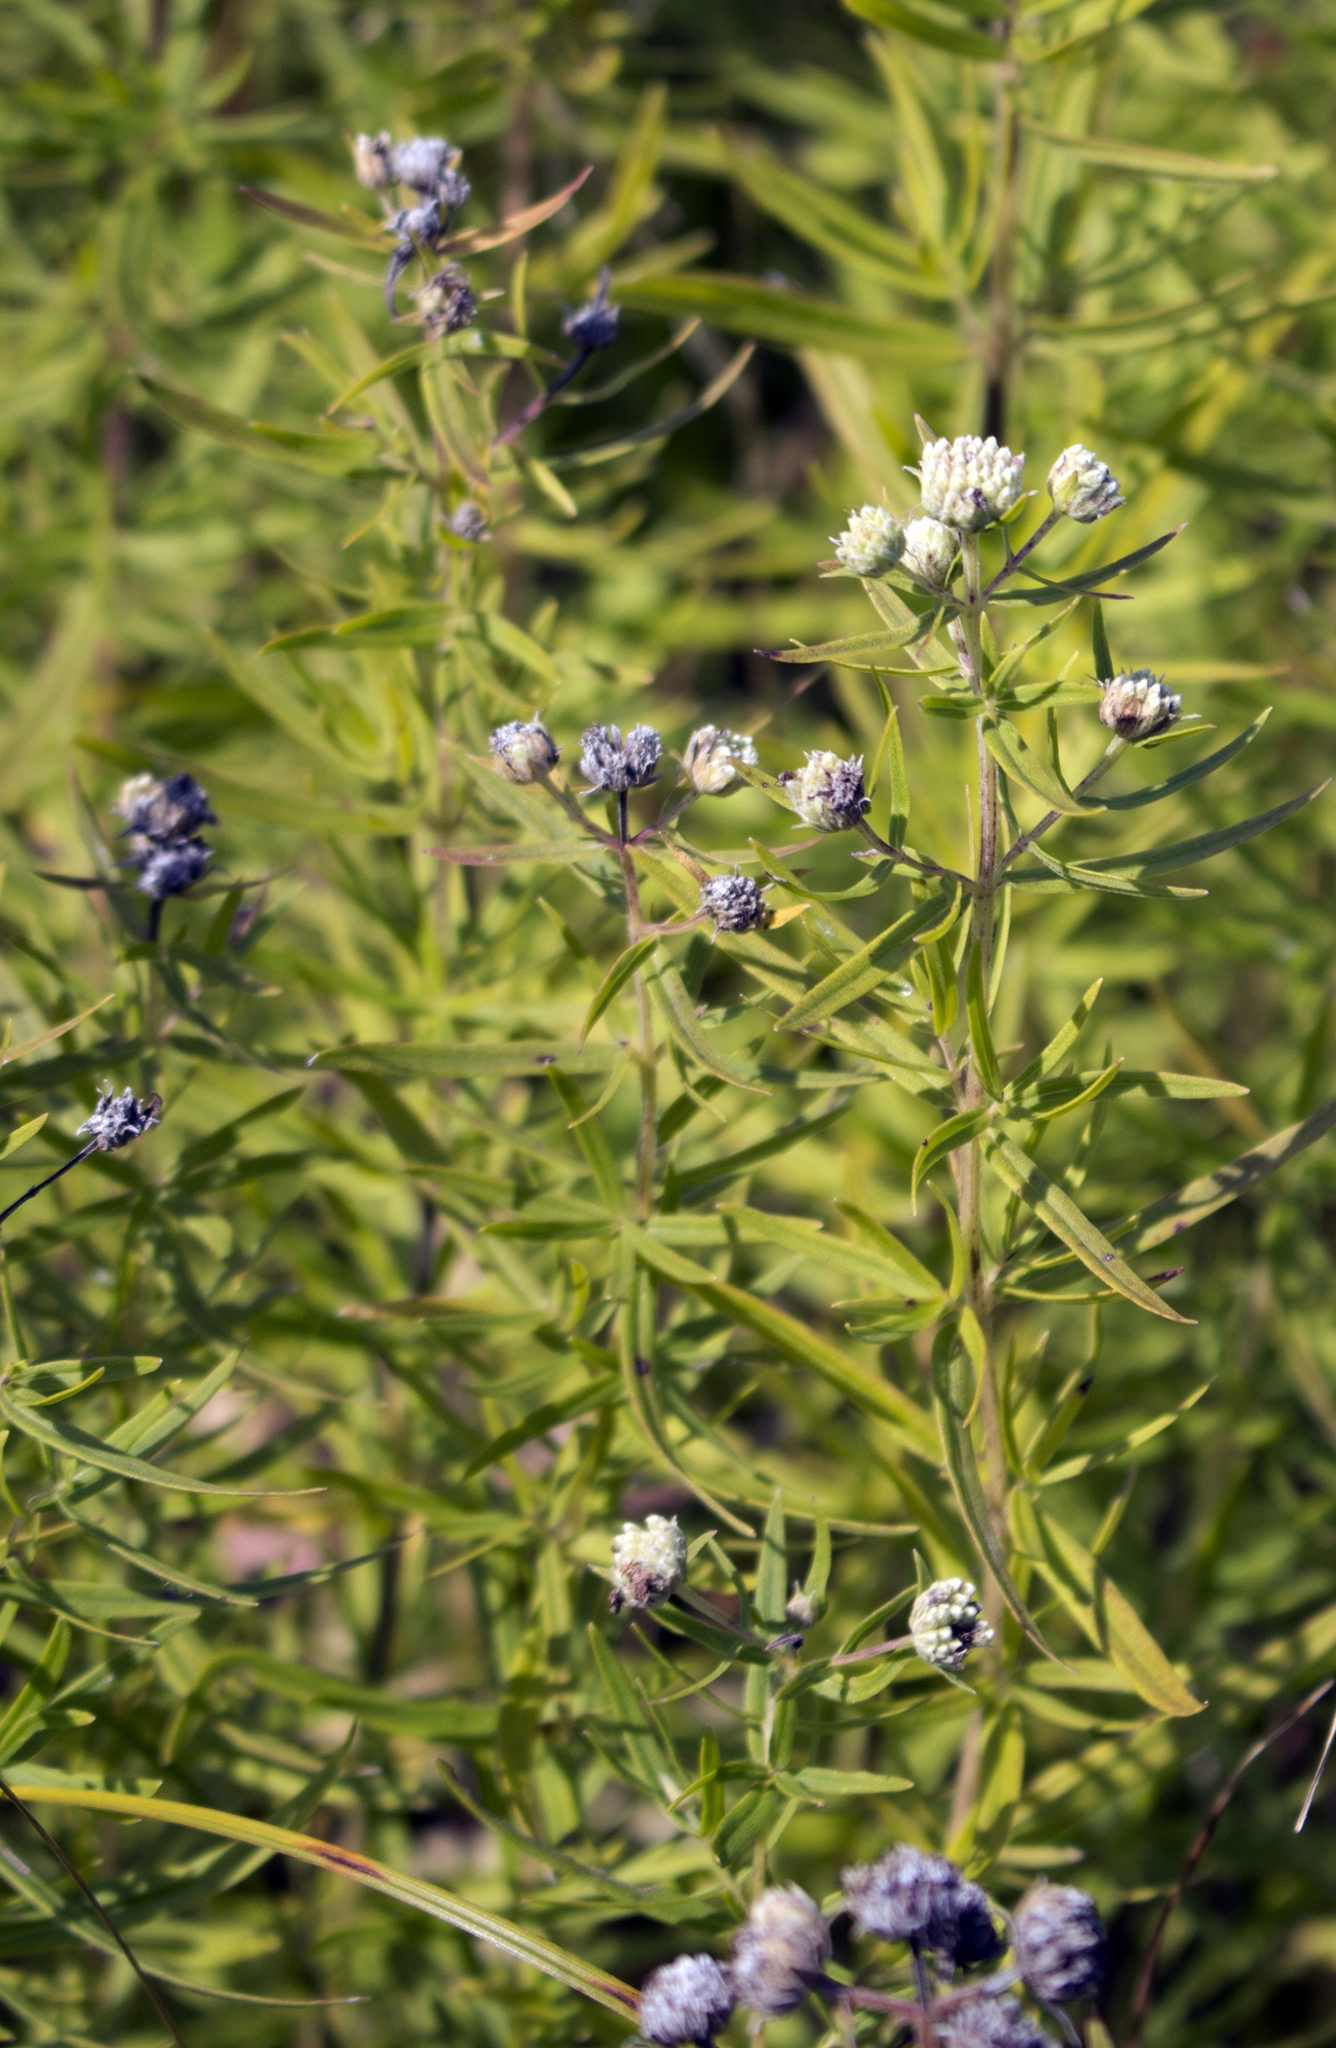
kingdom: Plantae
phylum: Tracheophyta
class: Magnoliopsida
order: Lamiales
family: Lamiaceae
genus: Pycnanthemum
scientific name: Pycnanthemum virginianum
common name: Virginia mountain-mint
